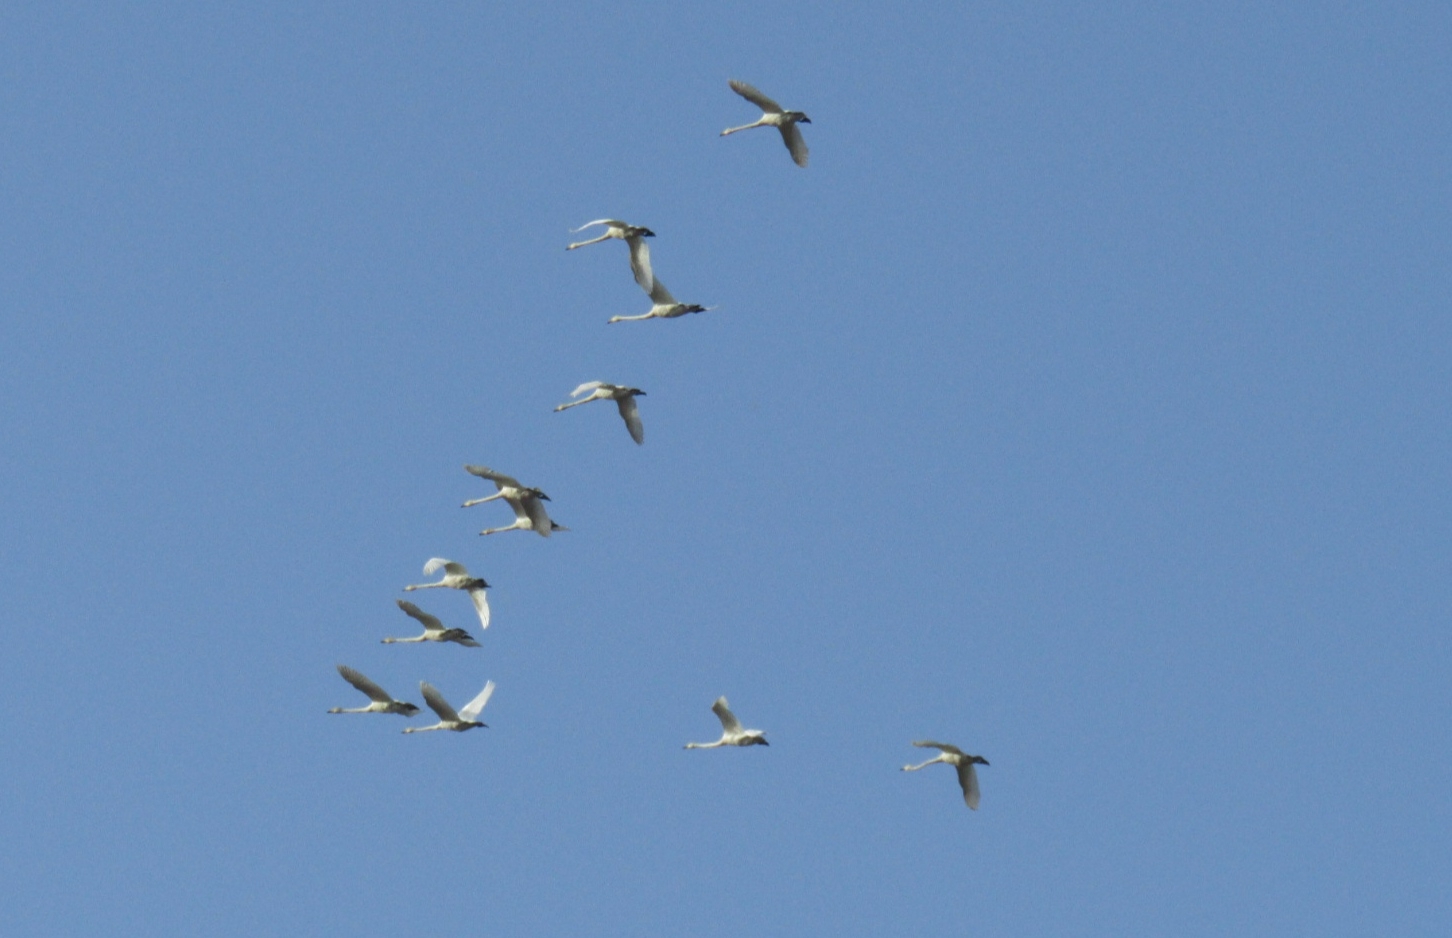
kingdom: Animalia
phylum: Chordata
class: Aves
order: Anseriformes
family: Anatidae
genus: Cygnus
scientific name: Cygnus cygnus
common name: Whooper swan
